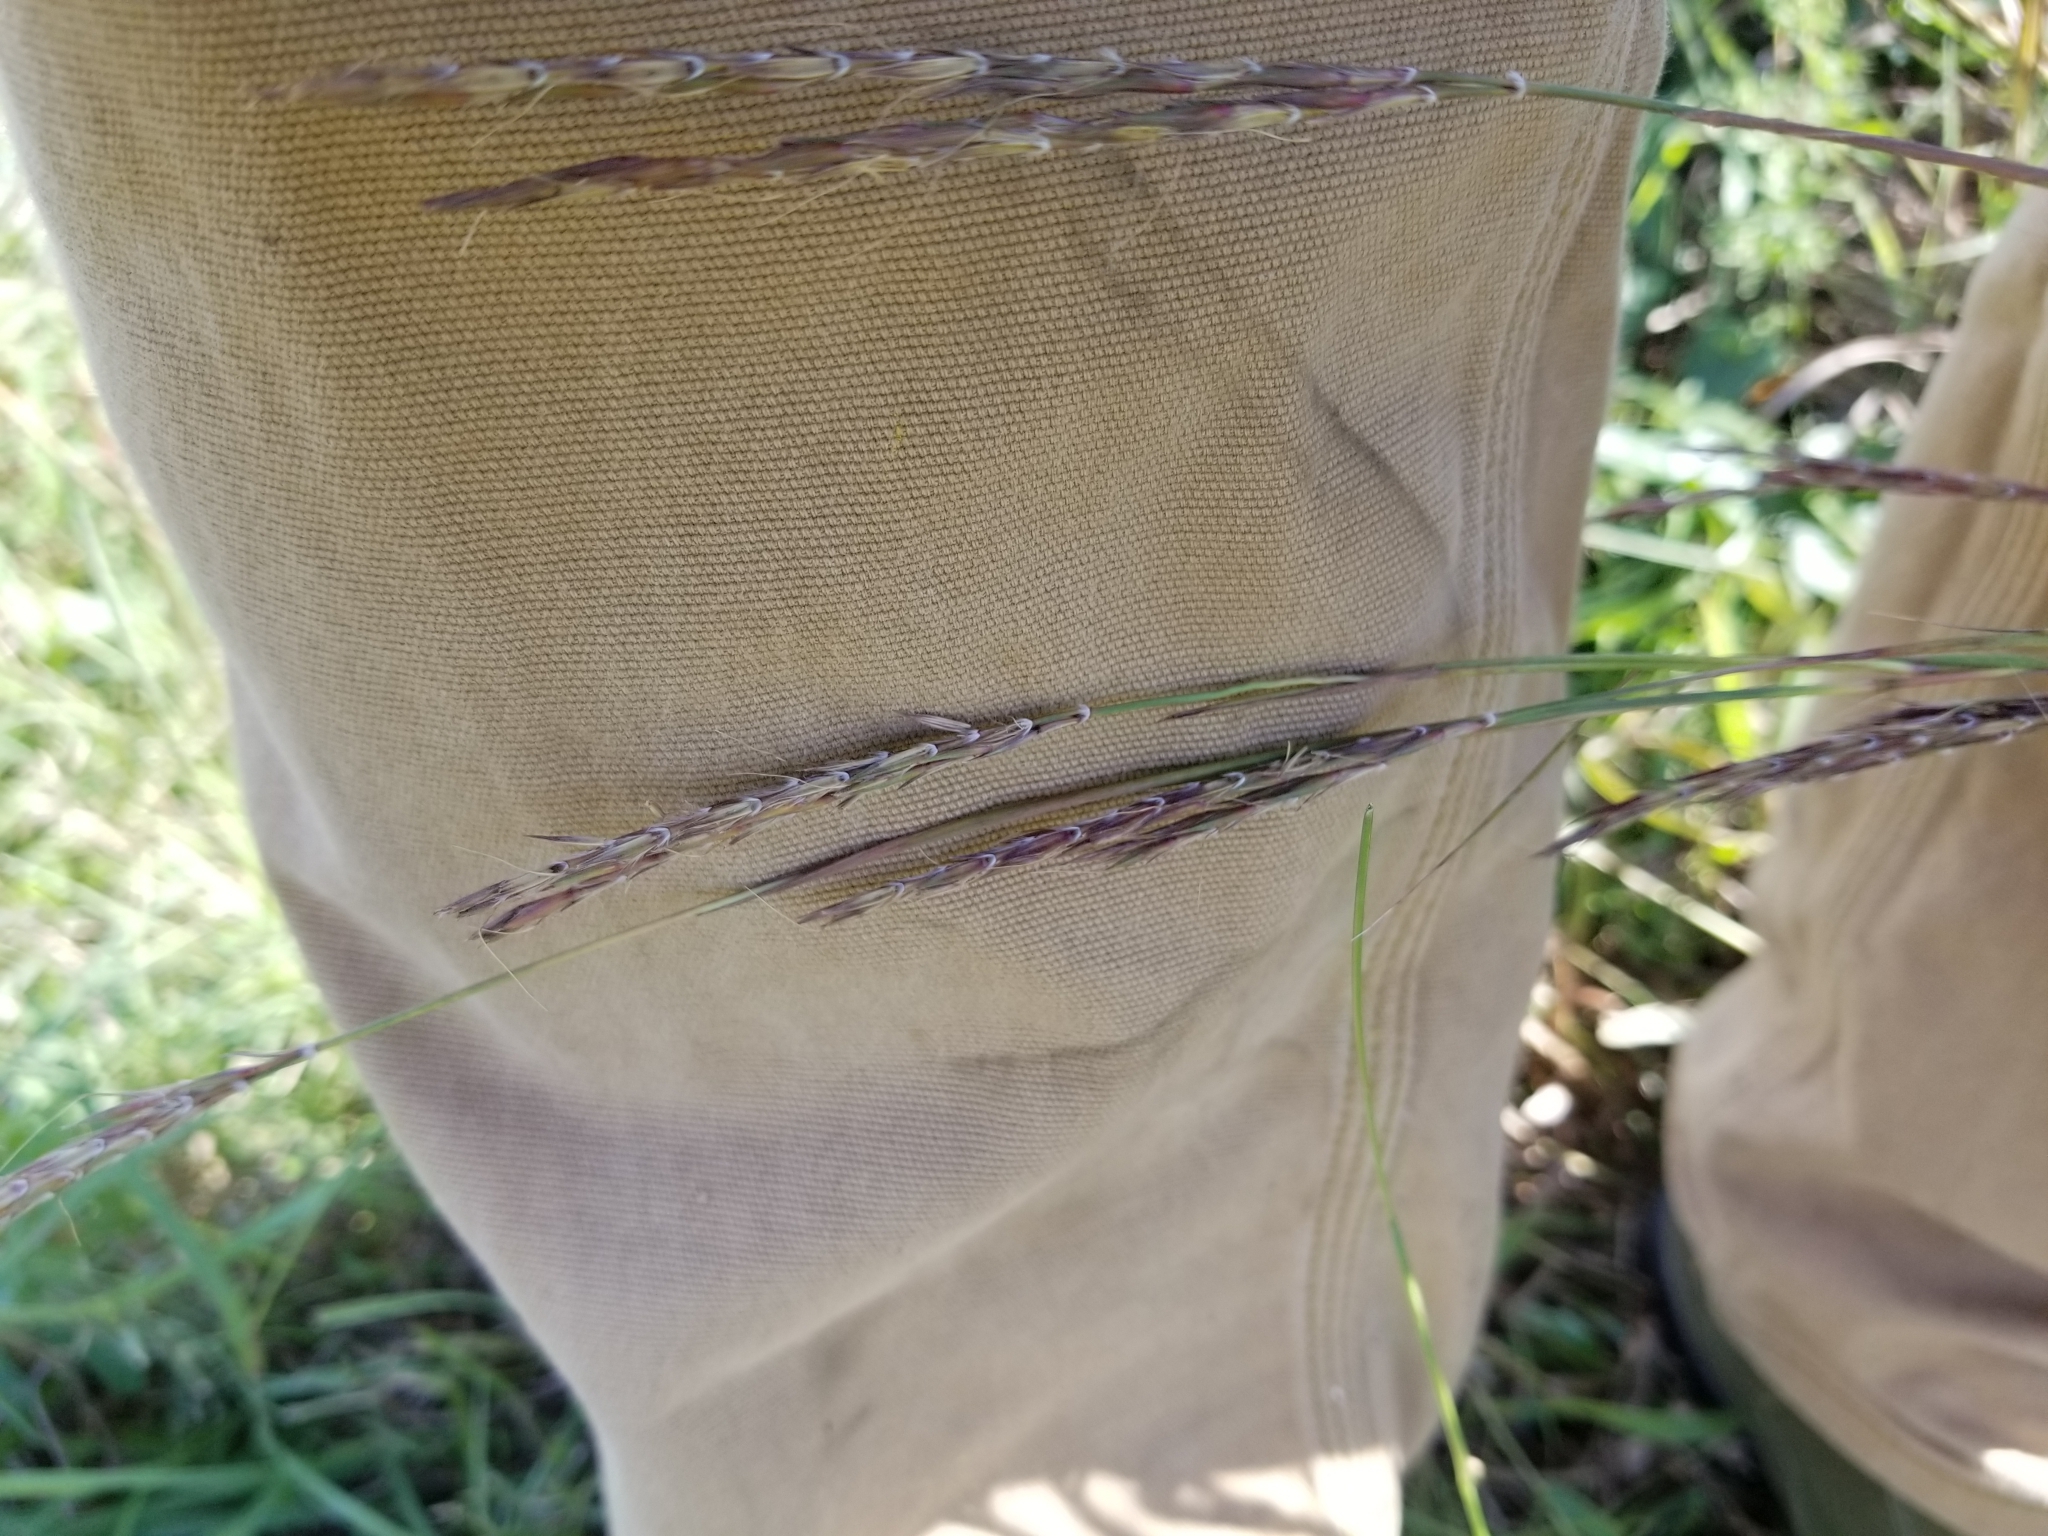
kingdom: Plantae
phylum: Tracheophyta
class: Liliopsida
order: Poales
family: Poaceae
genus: Andropogon
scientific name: Andropogon gerardi
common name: Big bluestem
